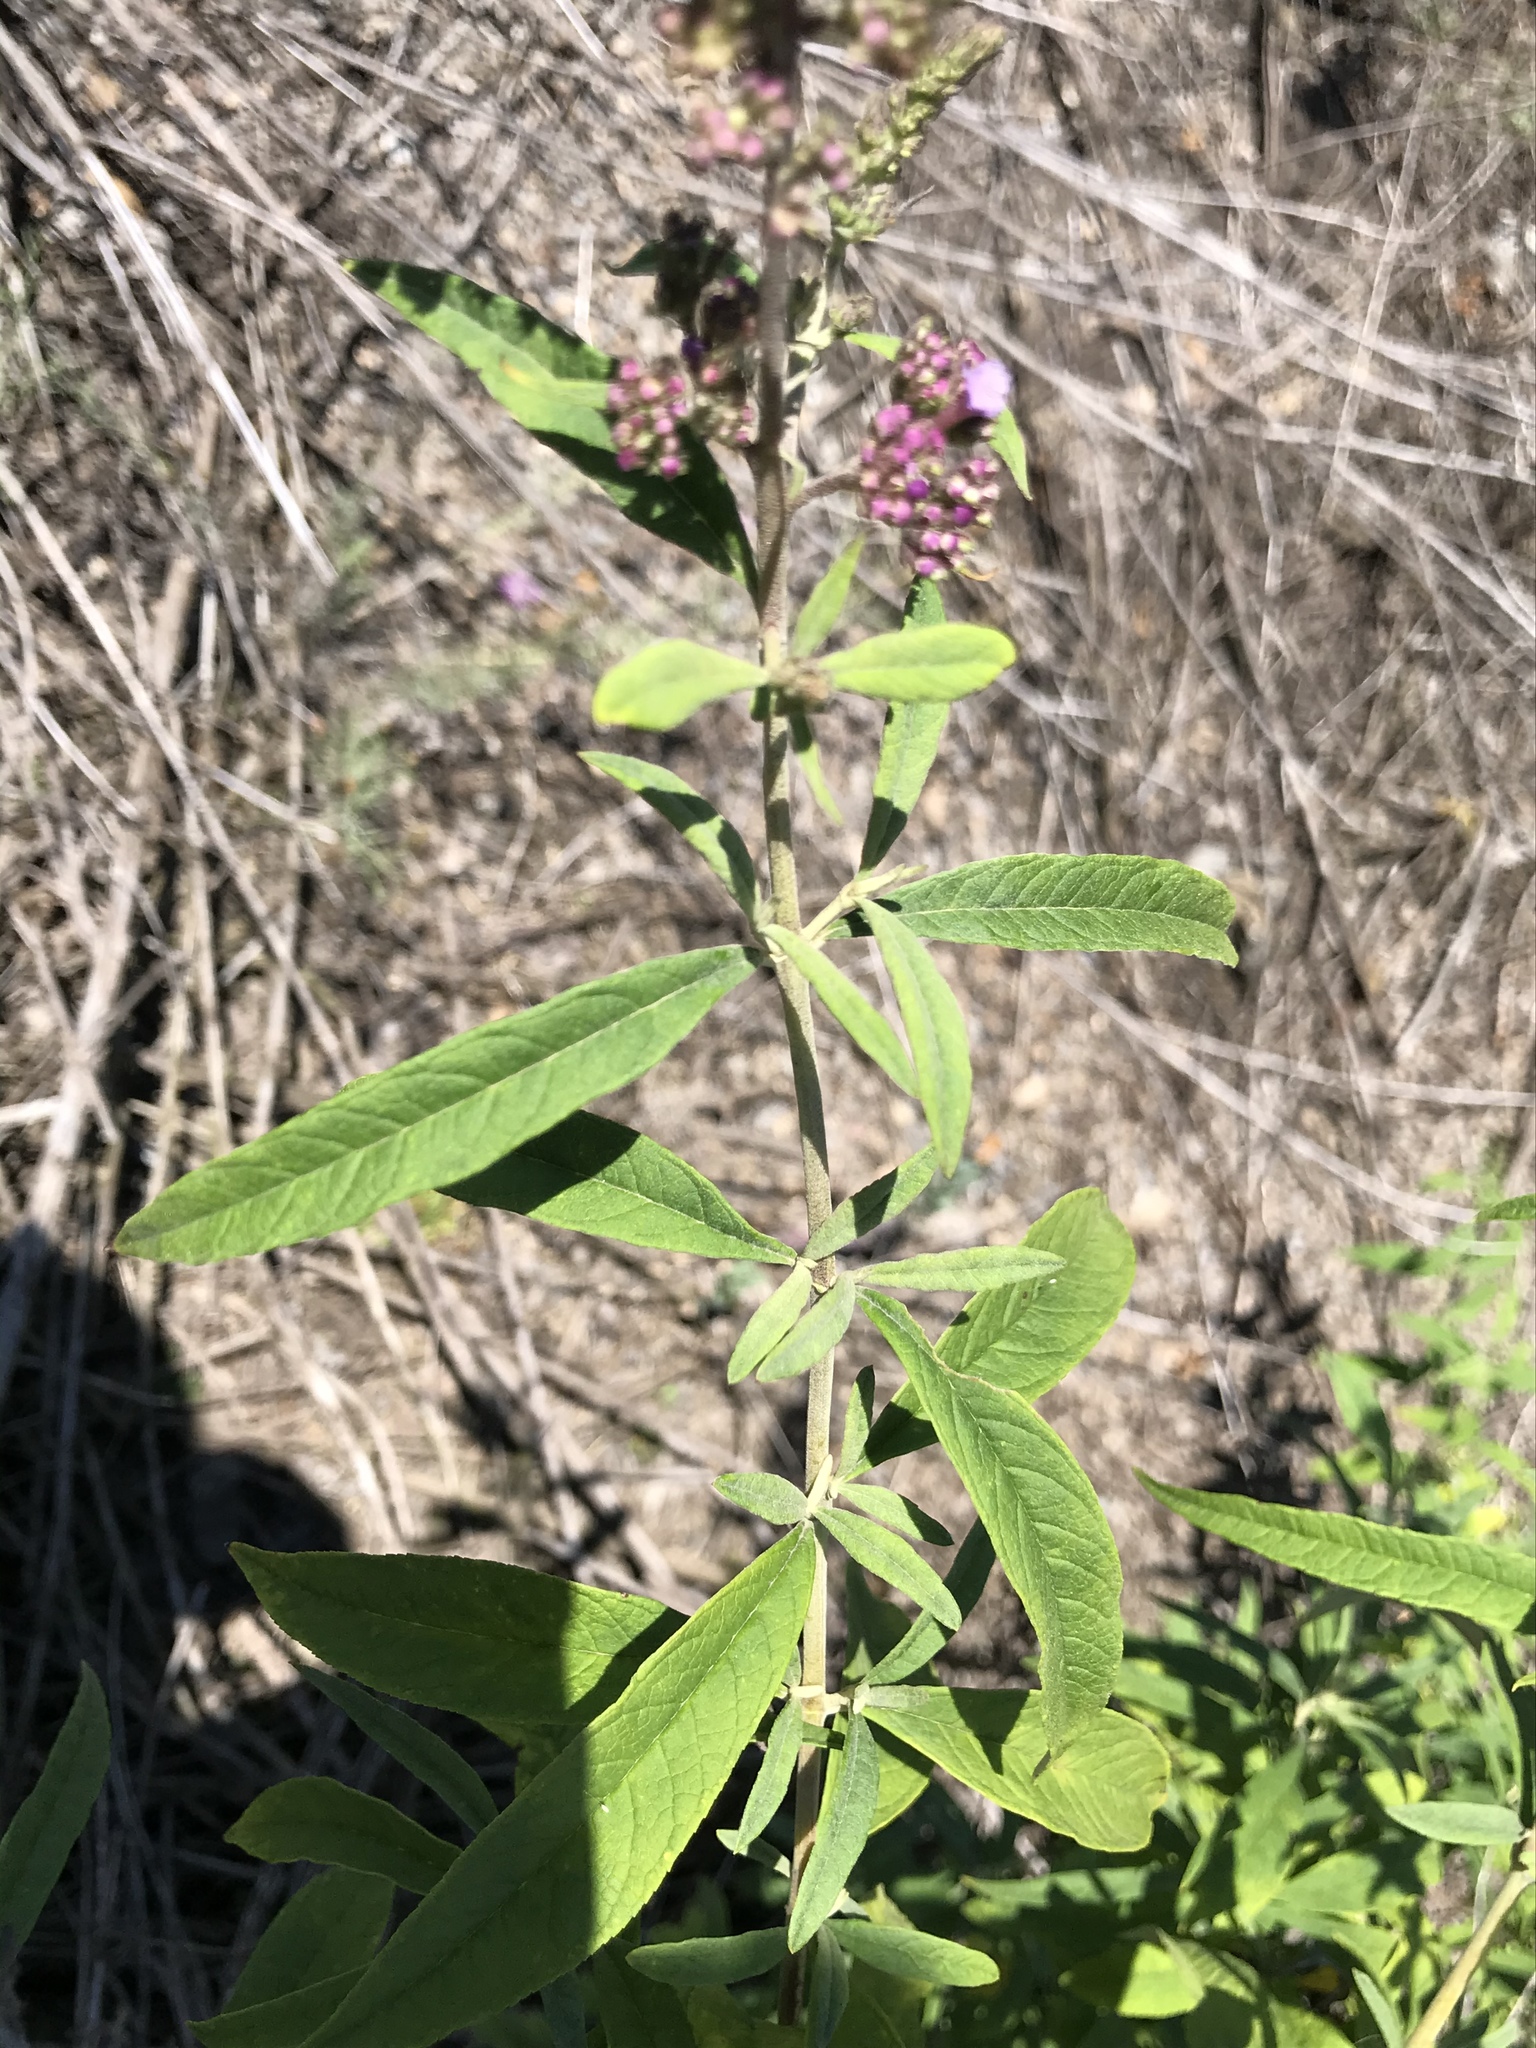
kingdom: Plantae
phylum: Tracheophyta
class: Magnoliopsida
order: Lamiales
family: Scrophulariaceae
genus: Buddleja
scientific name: Buddleja davidii
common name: Butterfly-bush
